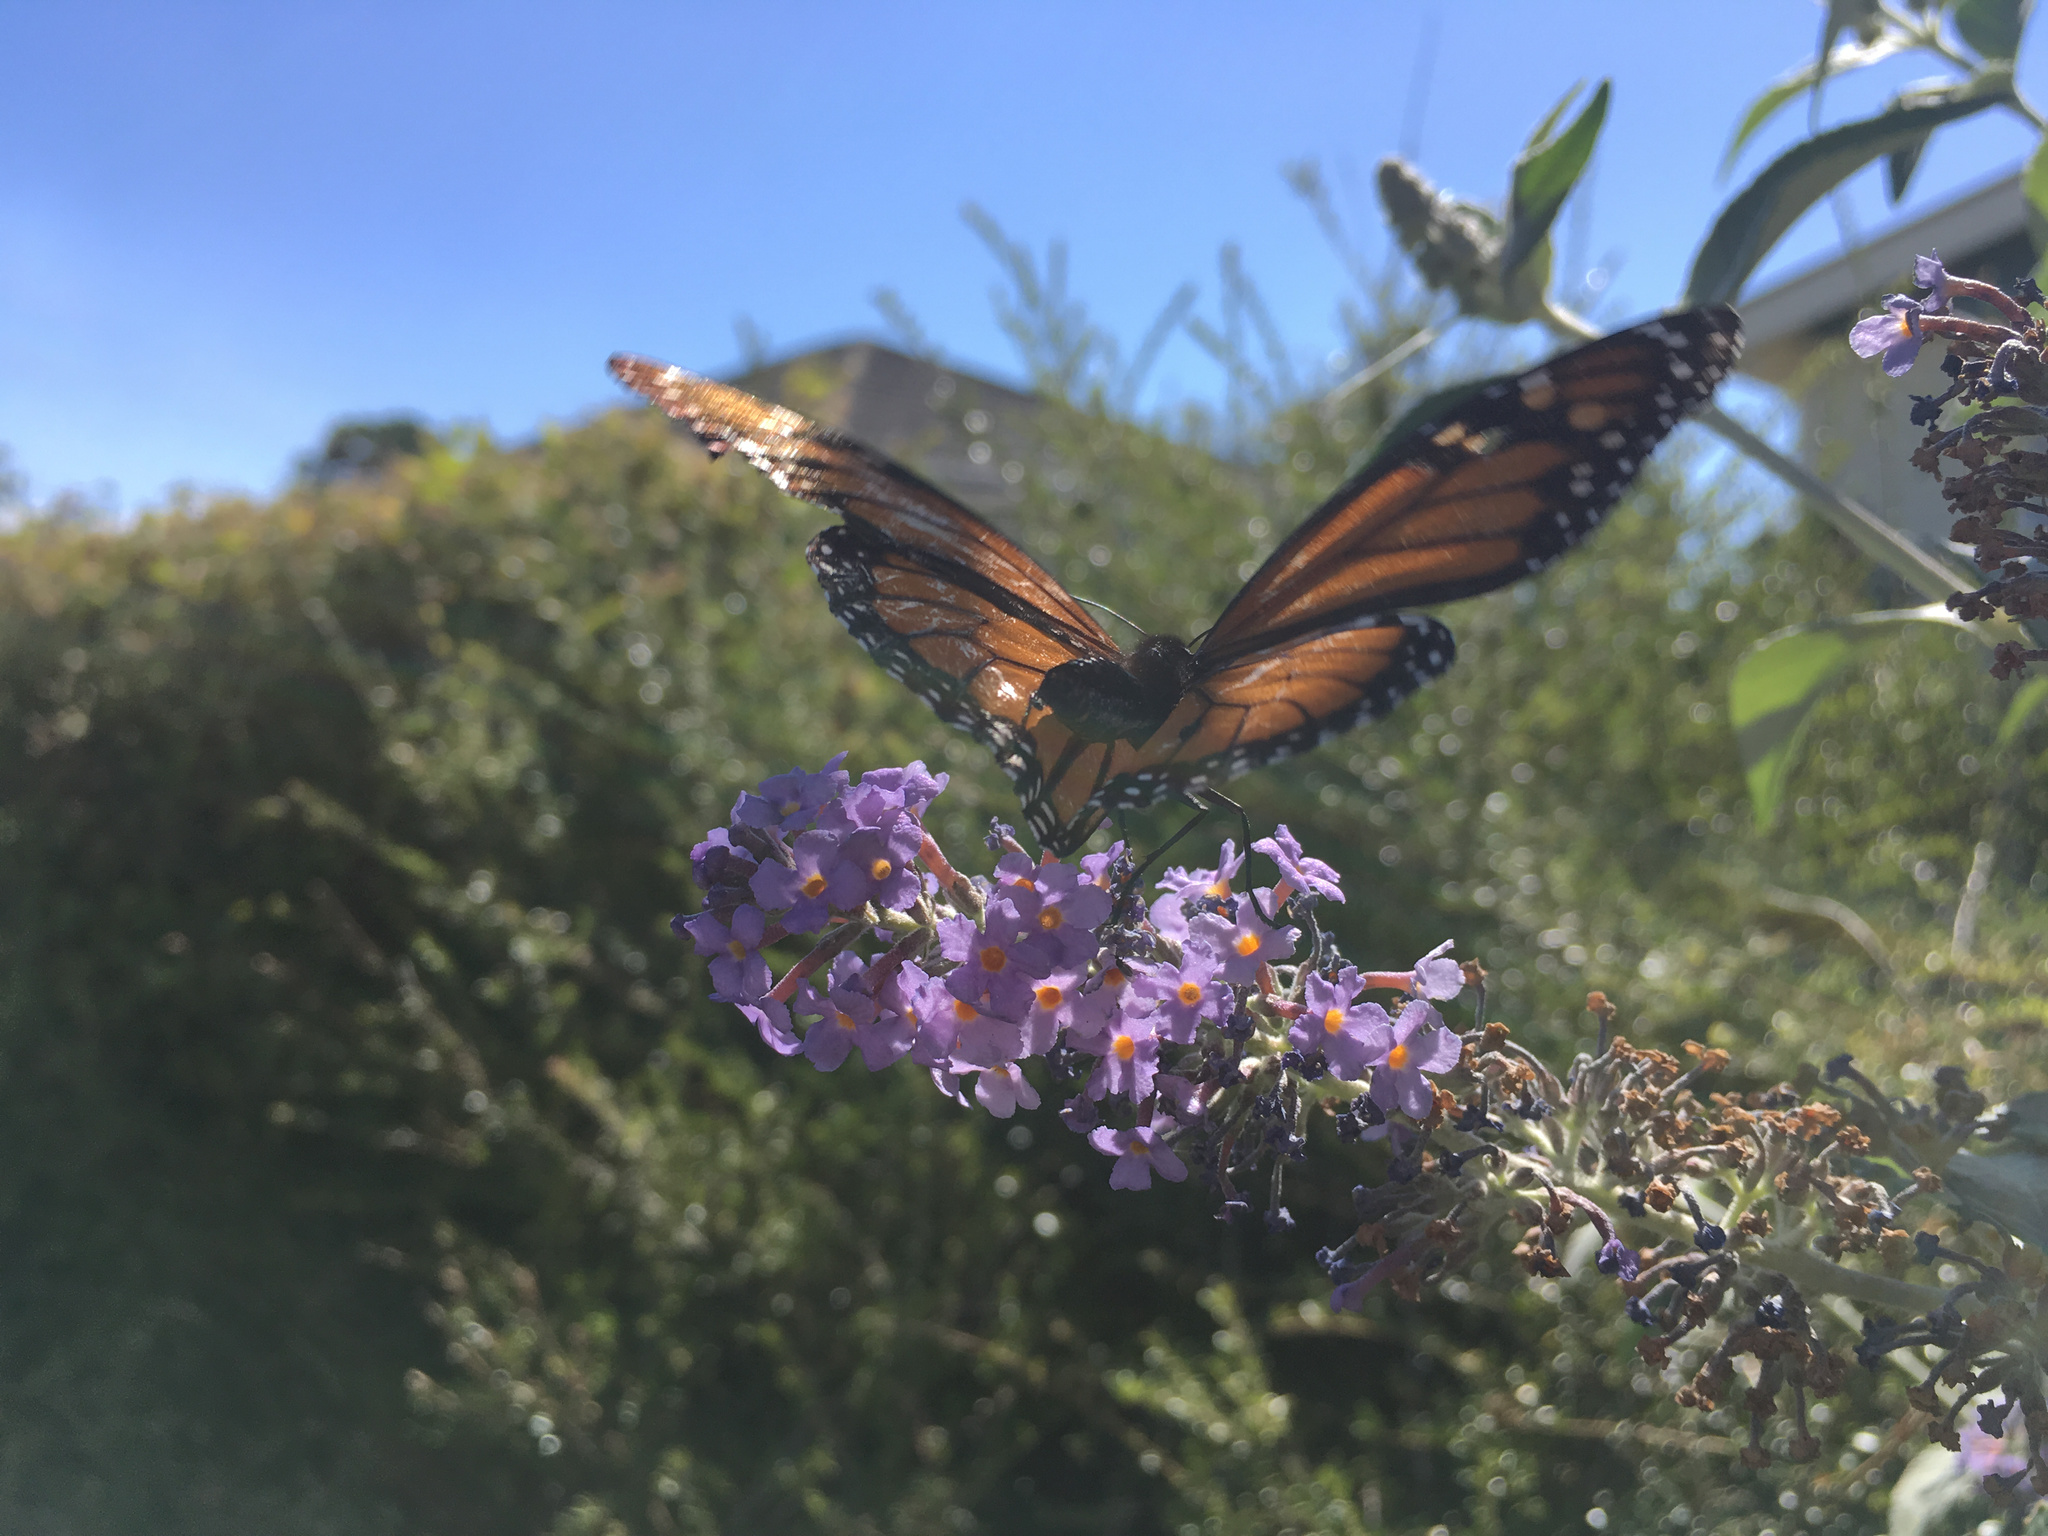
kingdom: Animalia
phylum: Arthropoda
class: Insecta
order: Lepidoptera
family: Nymphalidae
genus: Danaus
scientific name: Danaus plexippus
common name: Monarch
